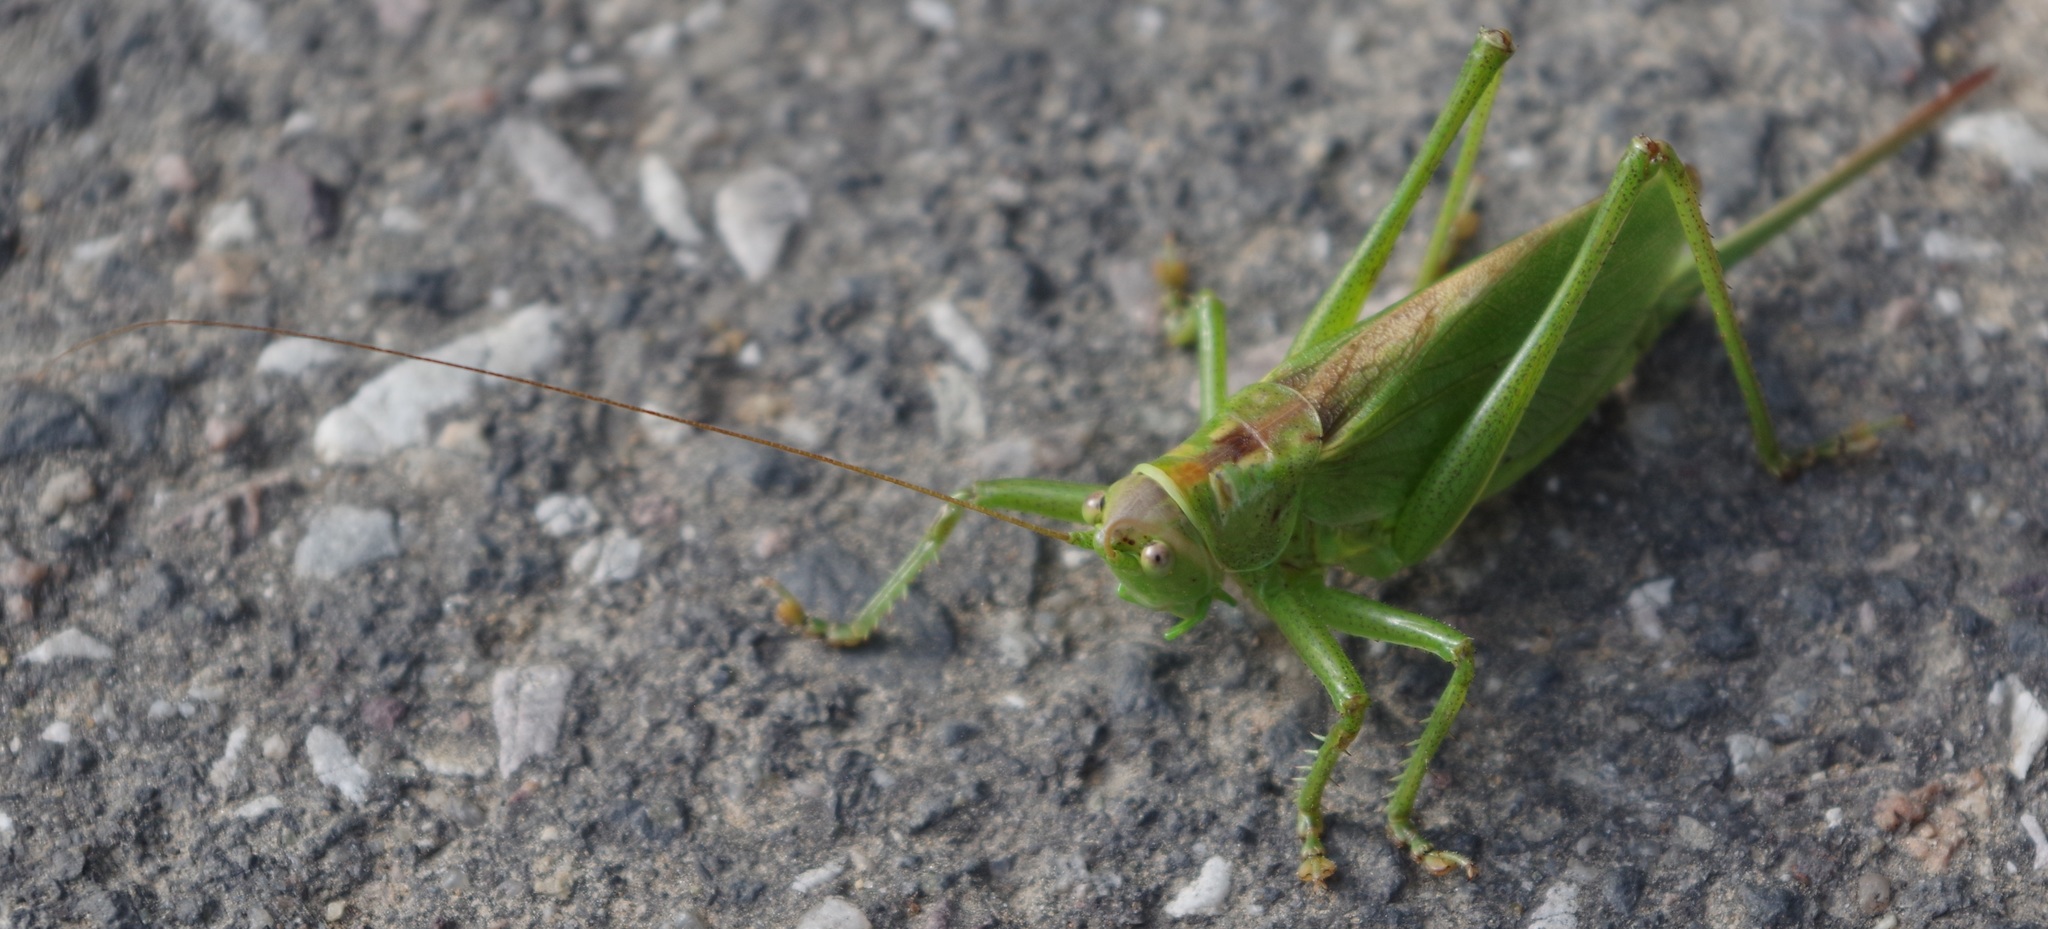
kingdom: Animalia
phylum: Arthropoda
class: Insecta
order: Orthoptera
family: Tettigoniidae
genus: Tettigonia
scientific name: Tettigonia cantans
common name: Upland green bush-cricket
